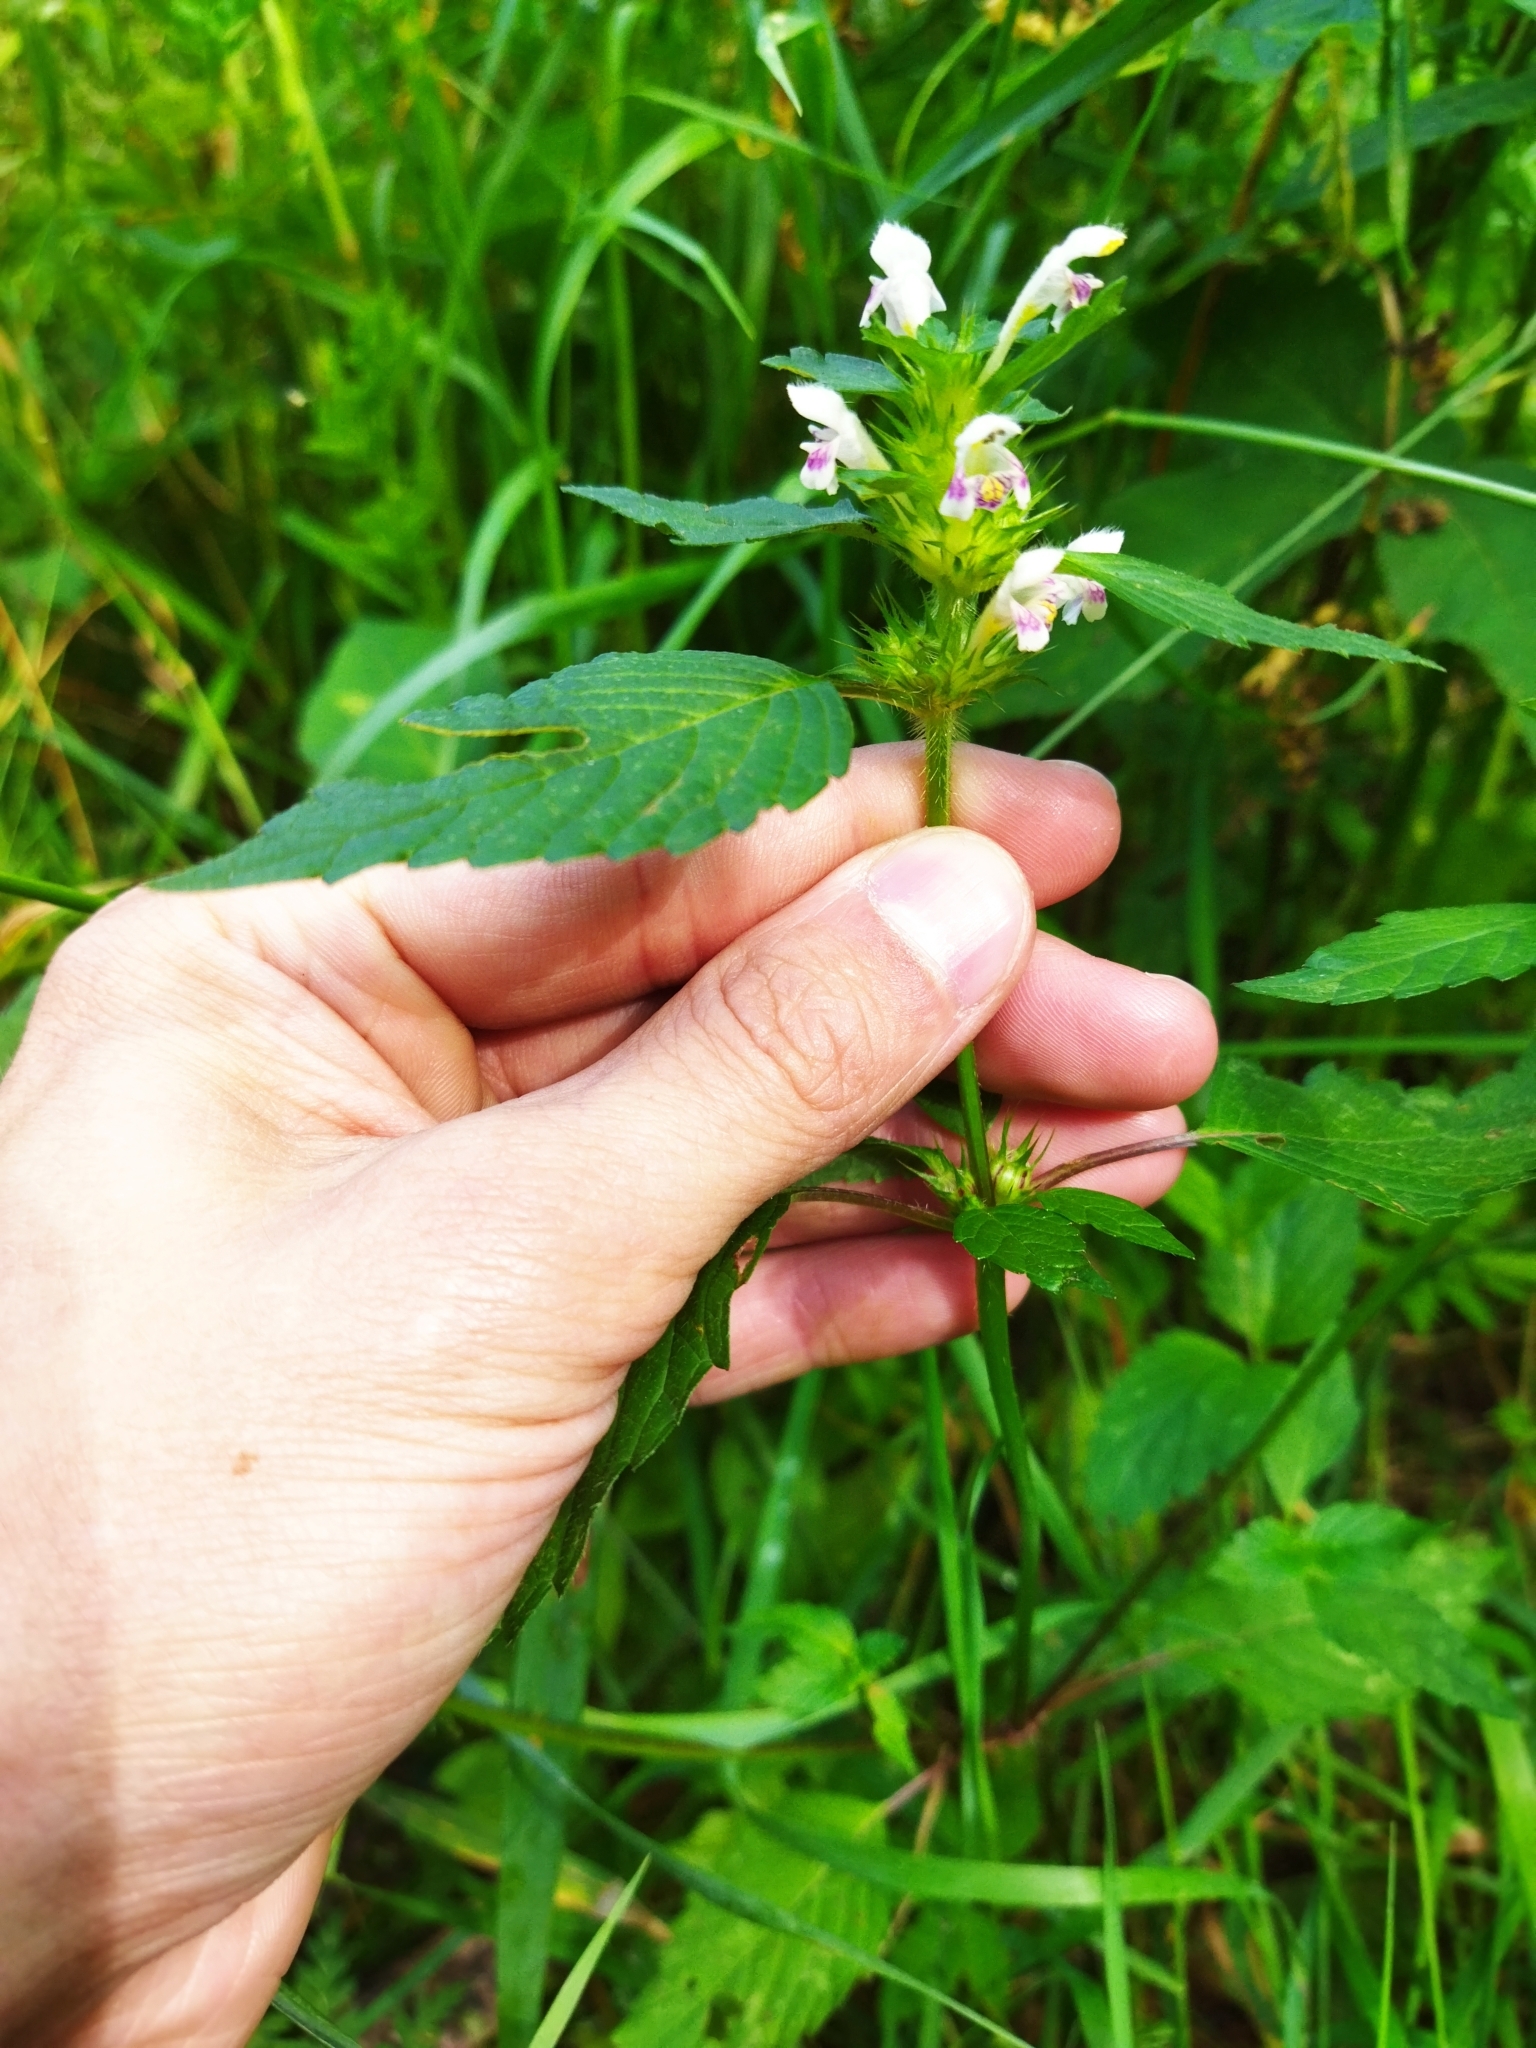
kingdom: Plantae
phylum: Tracheophyta
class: Magnoliopsida
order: Lamiales
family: Lamiaceae
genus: Galeopsis
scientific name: Galeopsis tetrahit
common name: Common hemp-nettle
